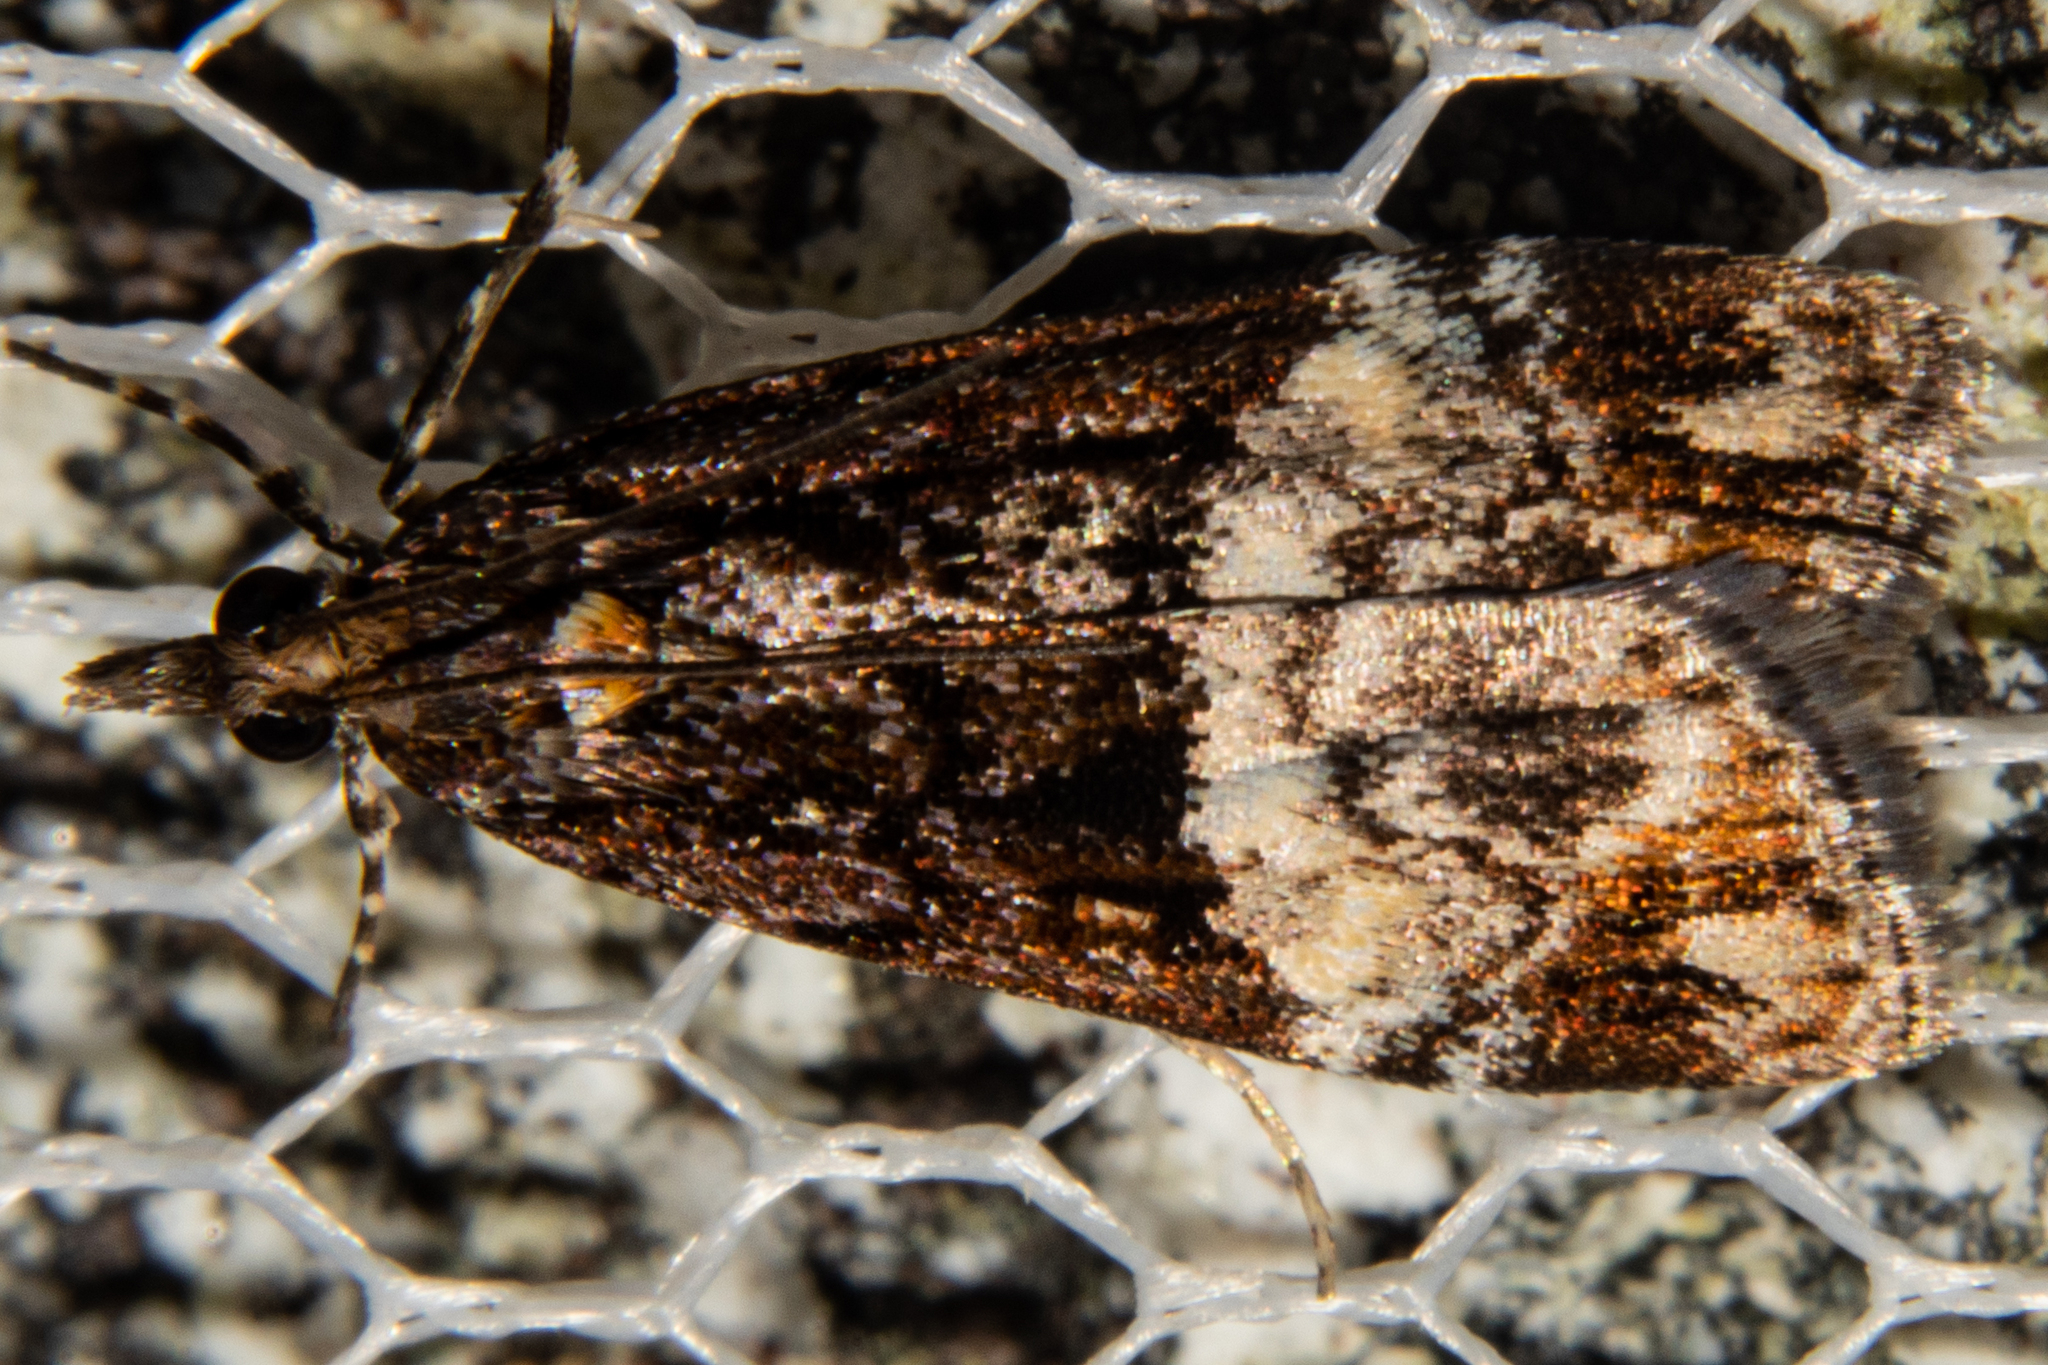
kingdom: Animalia
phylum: Arthropoda
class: Insecta
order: Lepidoptera
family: Crambidae
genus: Scoparia
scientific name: Scoparia minusculalis
